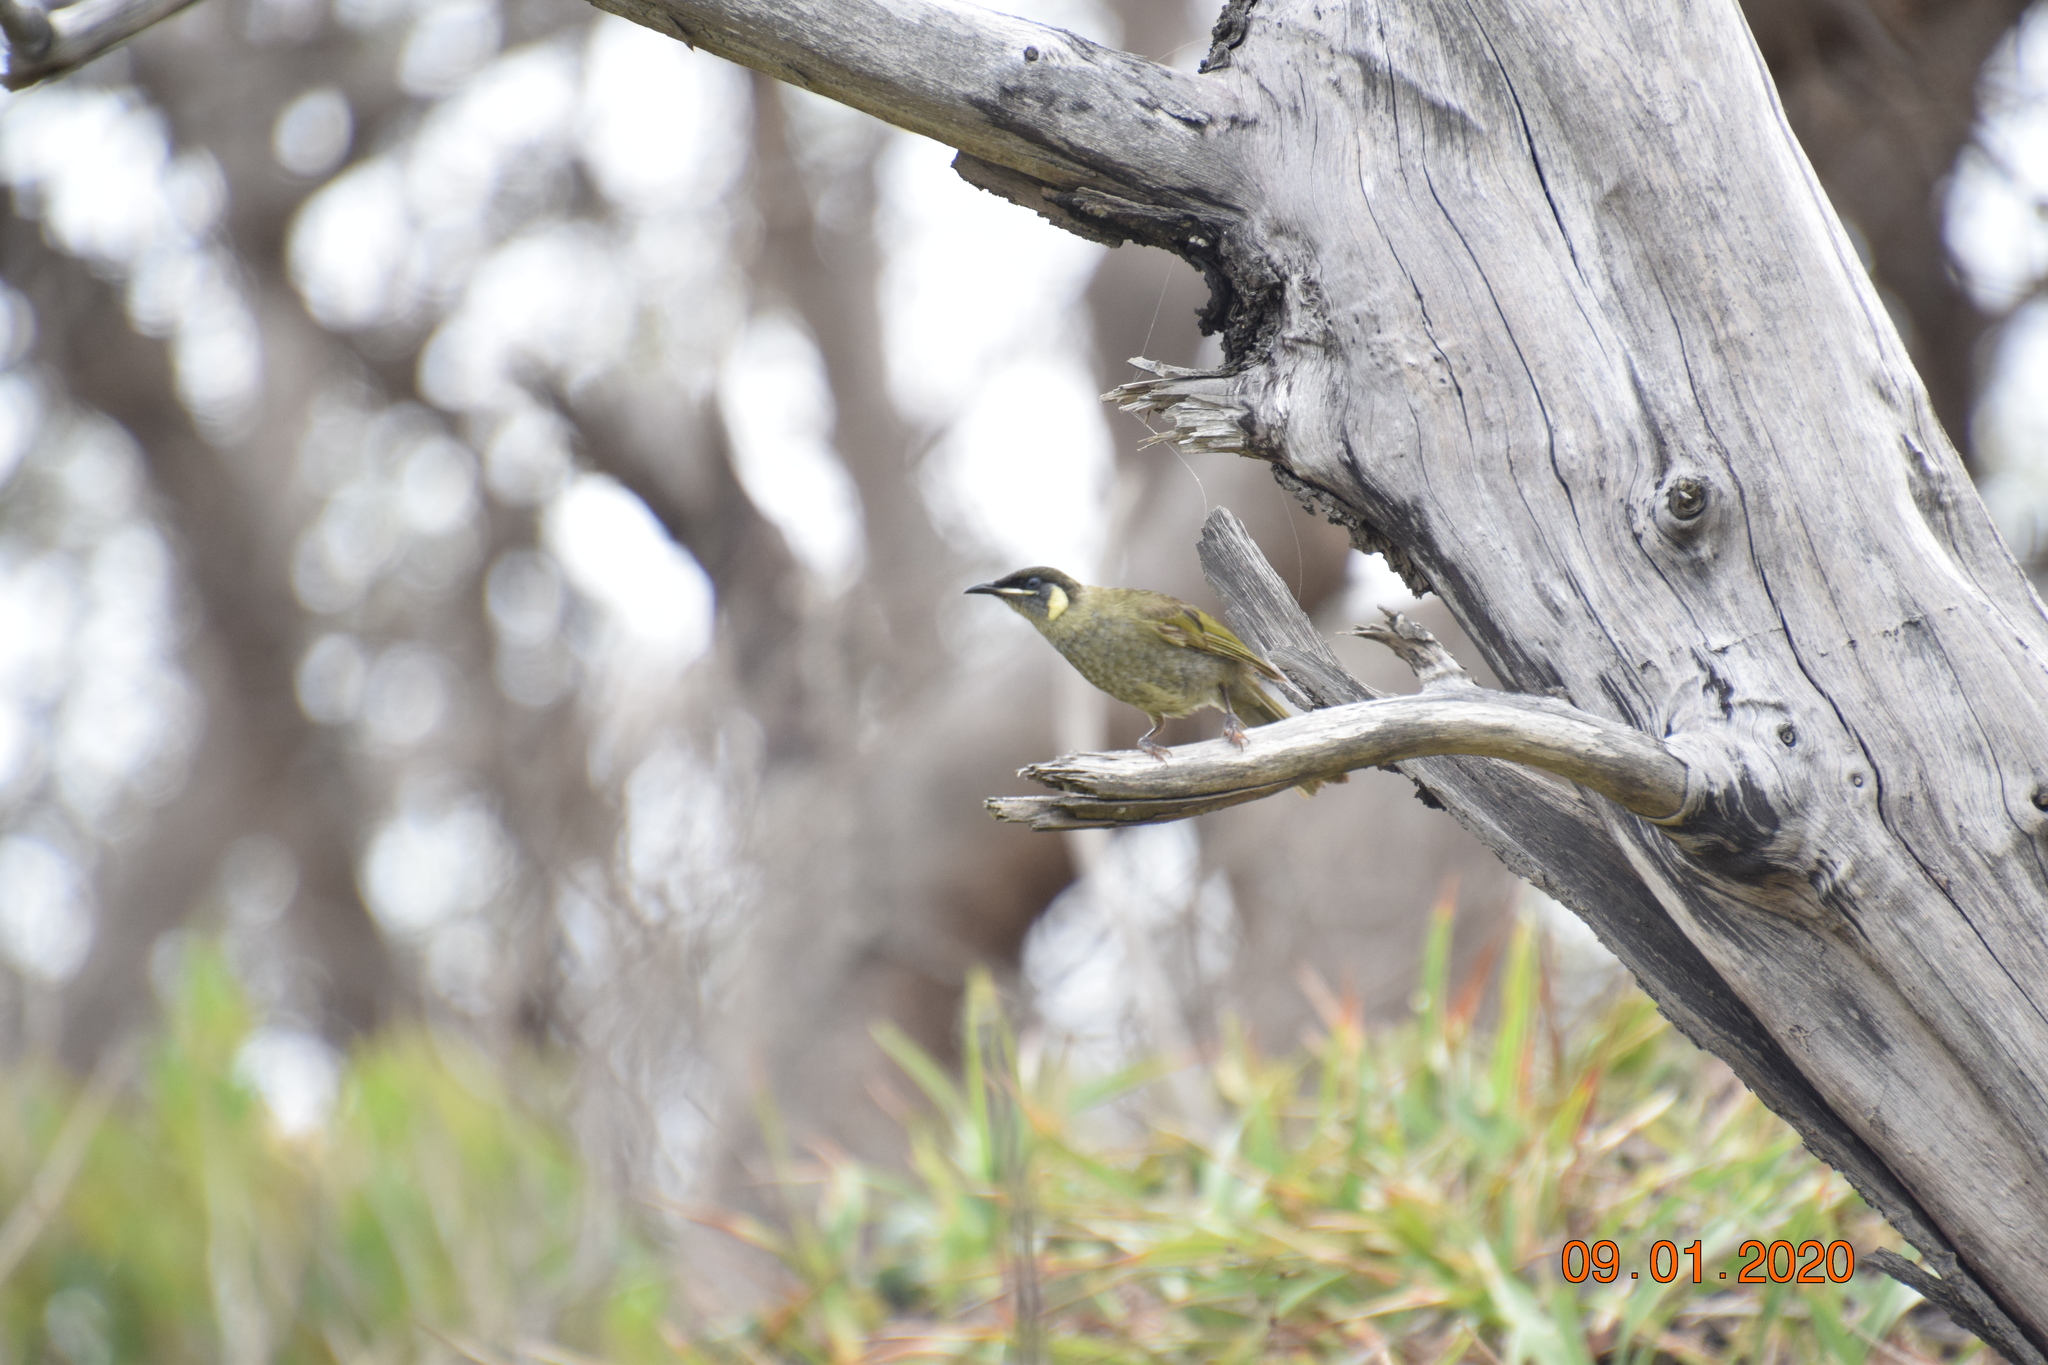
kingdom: Animalia
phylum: Chordata
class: Aves
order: Passeriformes
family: Meliphagidae
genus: Meliphaga
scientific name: Meliphaga lewinii
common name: Lewin's honeyeater
